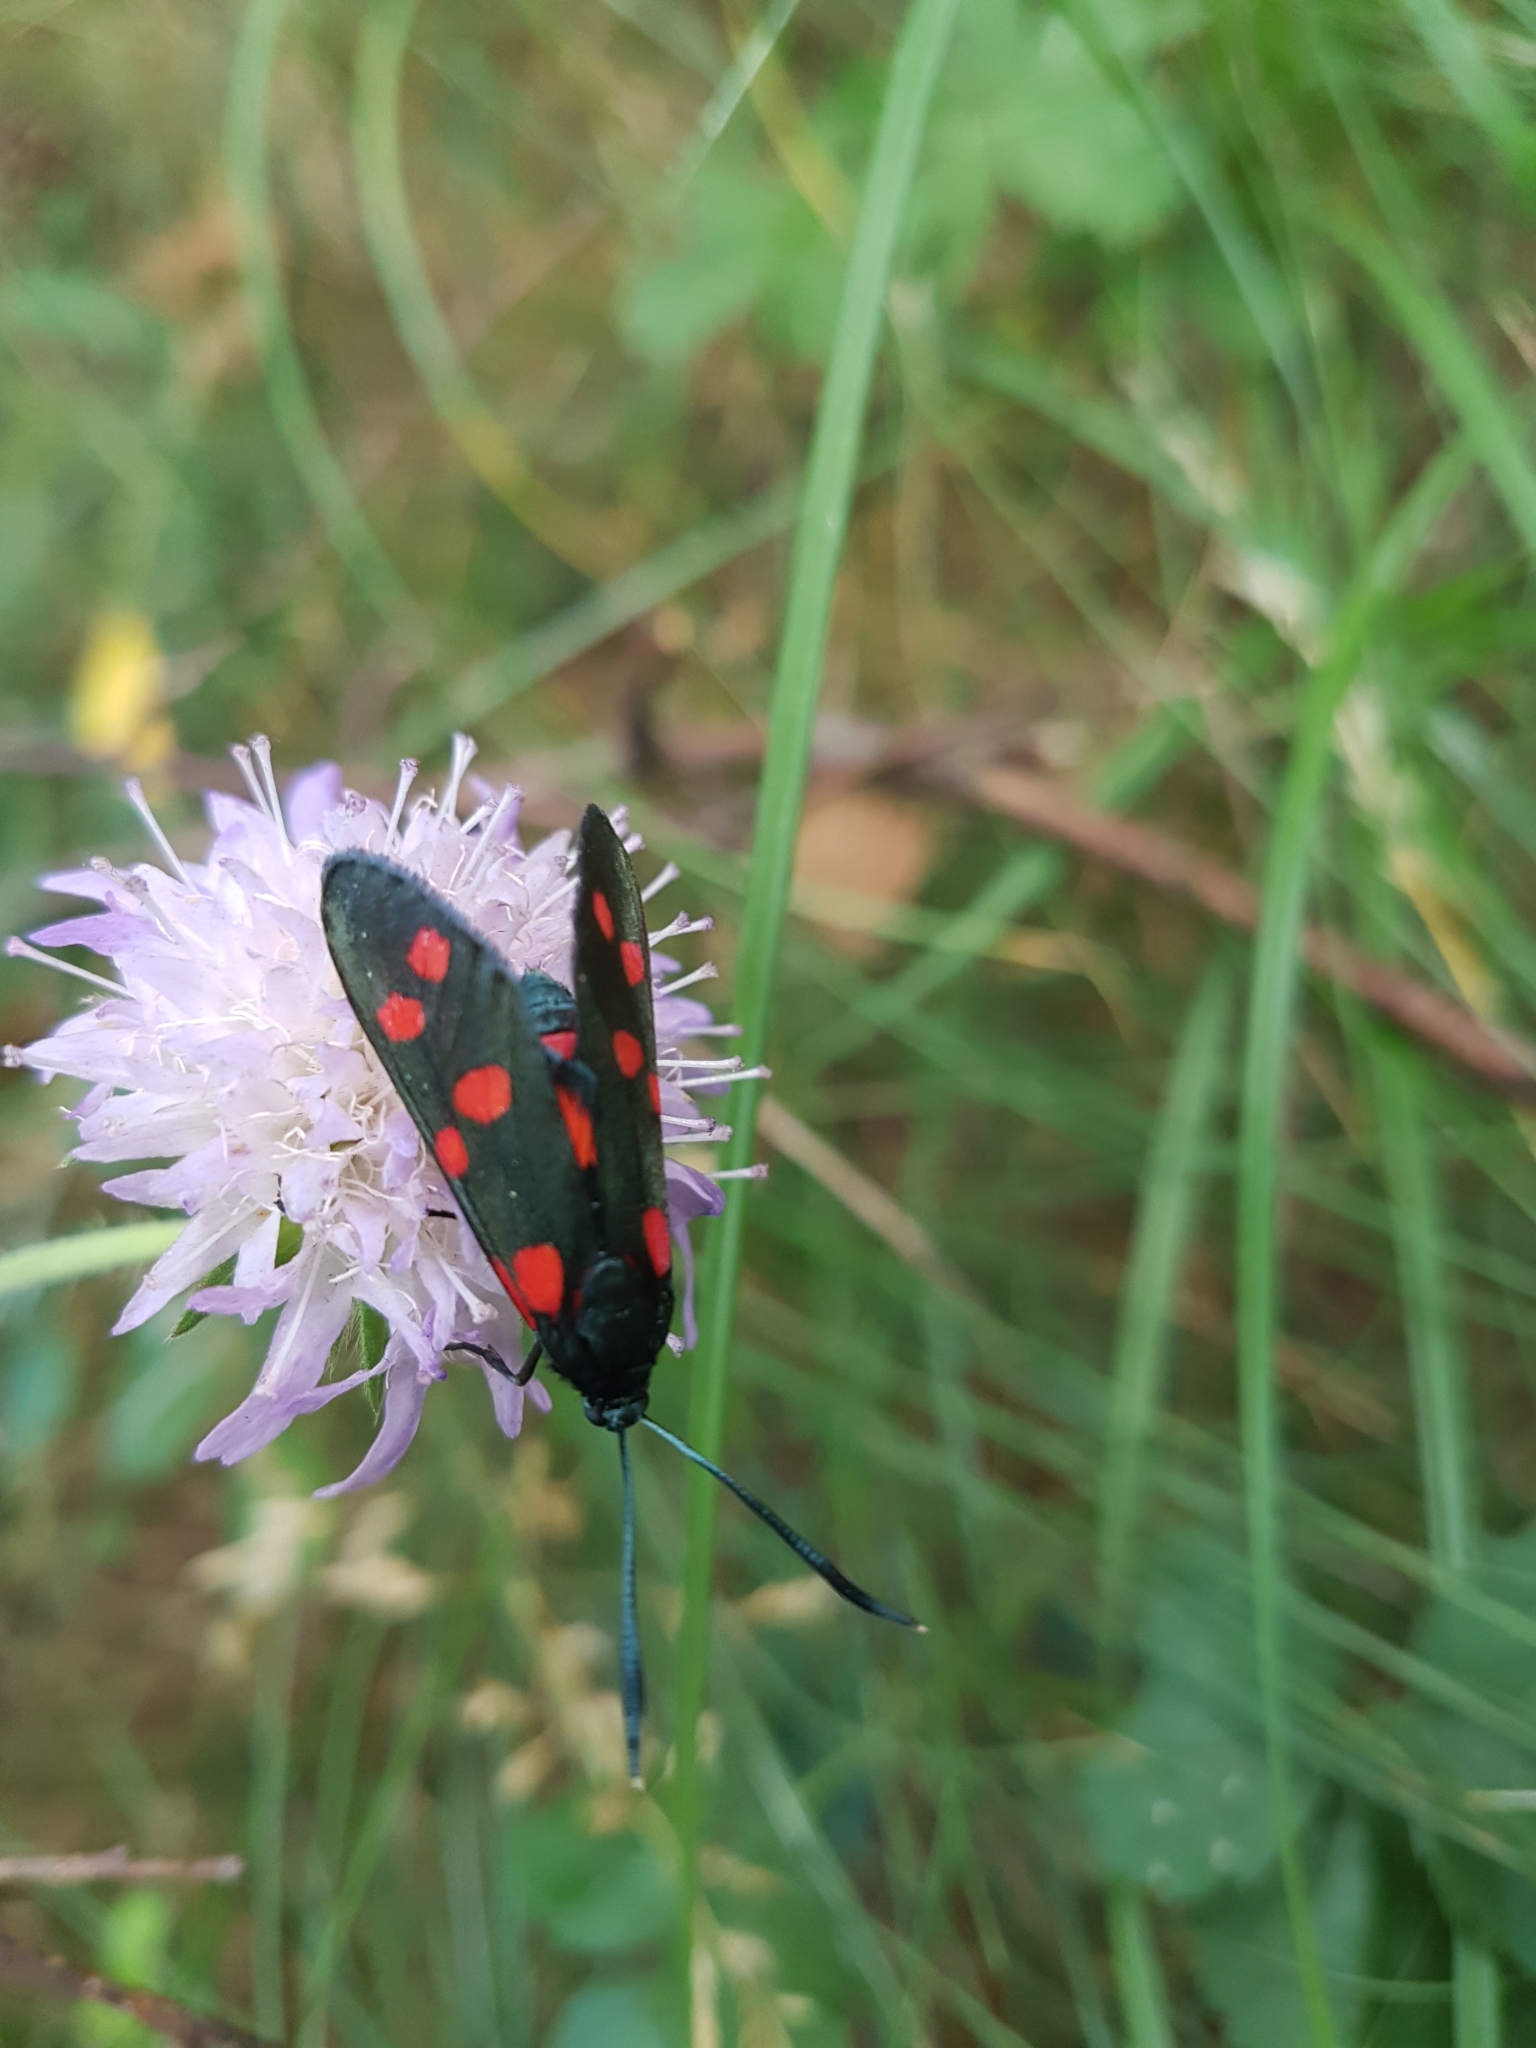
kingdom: Animalia
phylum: Arthropoda
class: Insecta
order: Lepidoptera
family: Zygaenidae
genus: Zygaena
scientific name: Zygaena ephialtes
